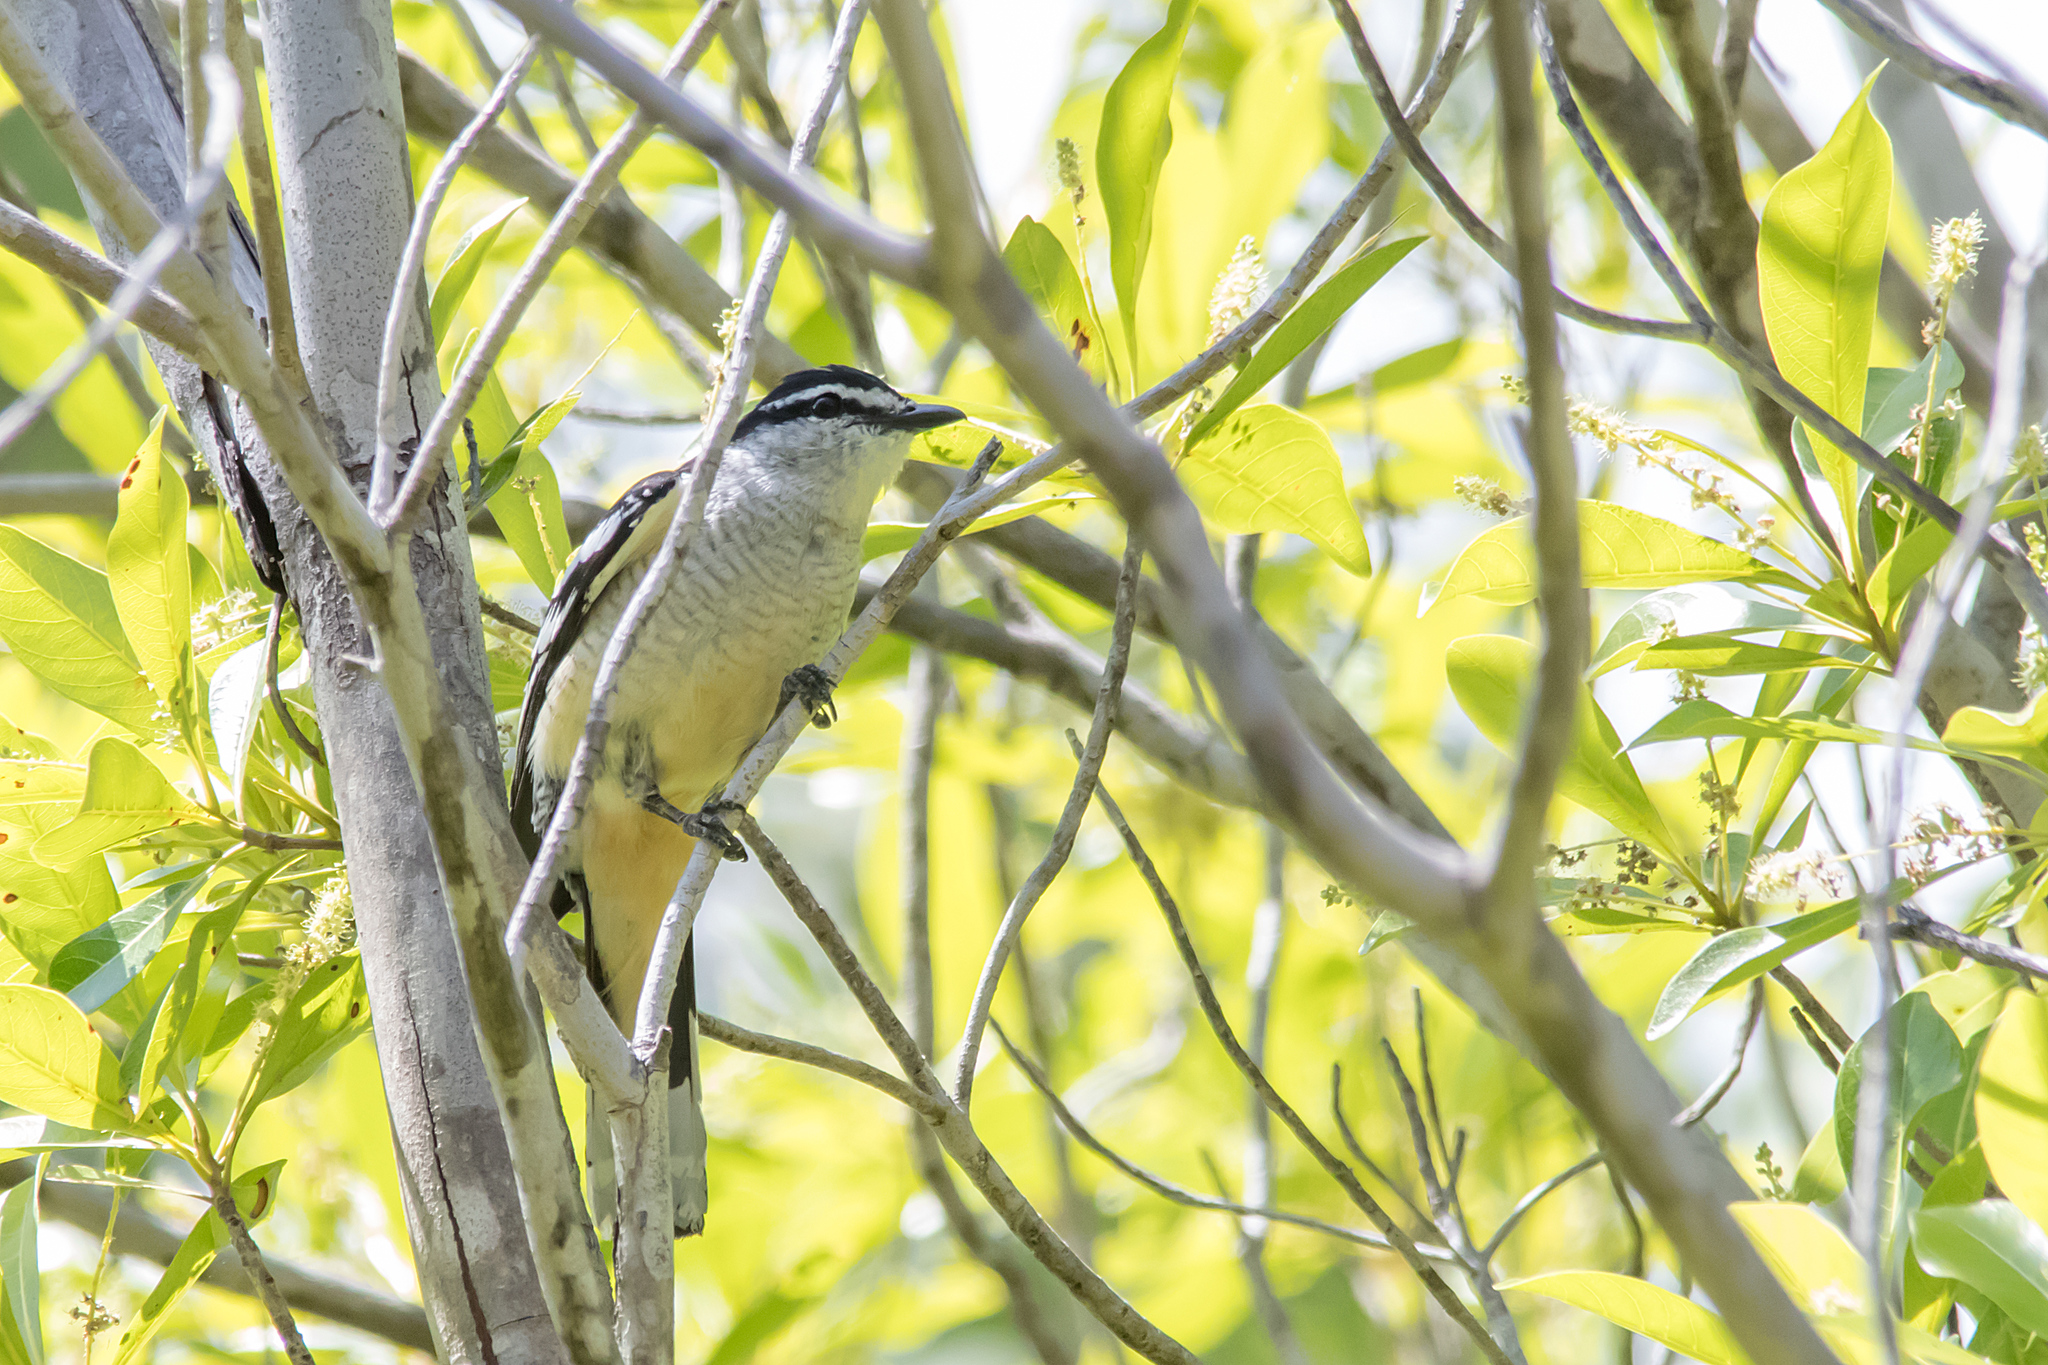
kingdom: Animalia
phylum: Chordata
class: Aves
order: Passeriformes
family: Campephagidae
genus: Lalage
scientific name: Lalage leucomela
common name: Varied triller
